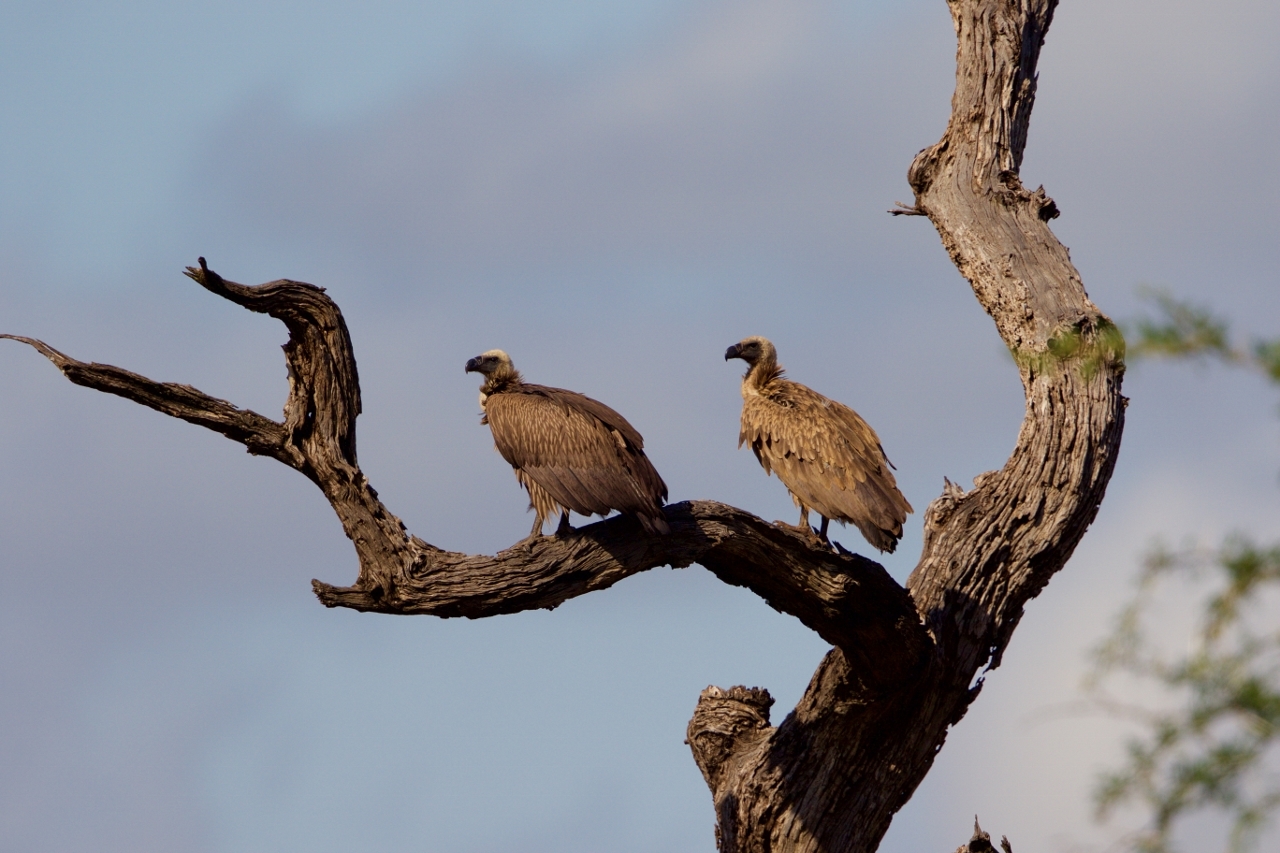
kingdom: Animalia
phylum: Chordata
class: Aves
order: Accipitriformes
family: Accipitridae
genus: Gyps
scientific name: Gyps africanus
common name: White-backed vulture
